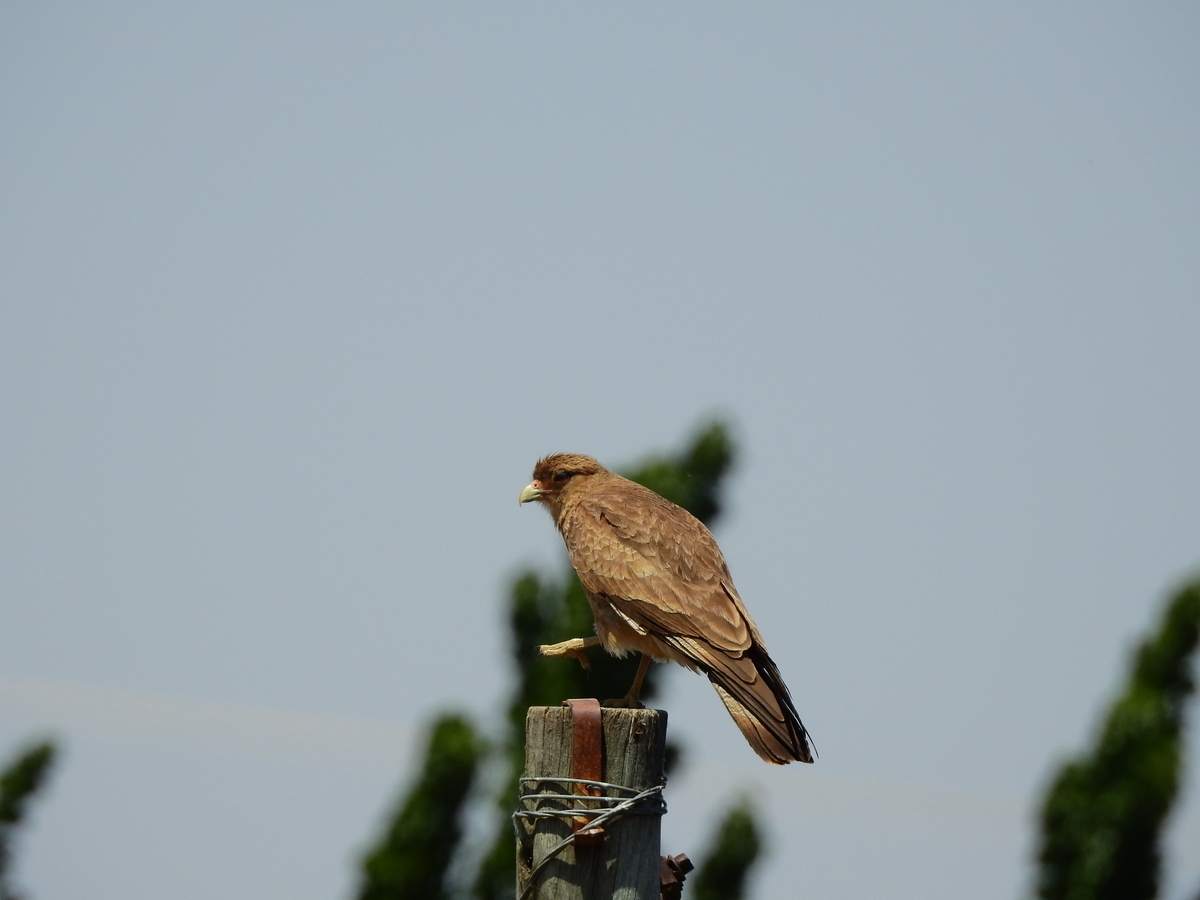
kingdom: Animalia
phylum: Chordata
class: Aves
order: Falconiformes
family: Falconidae
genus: Daptrius
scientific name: Daptrius
